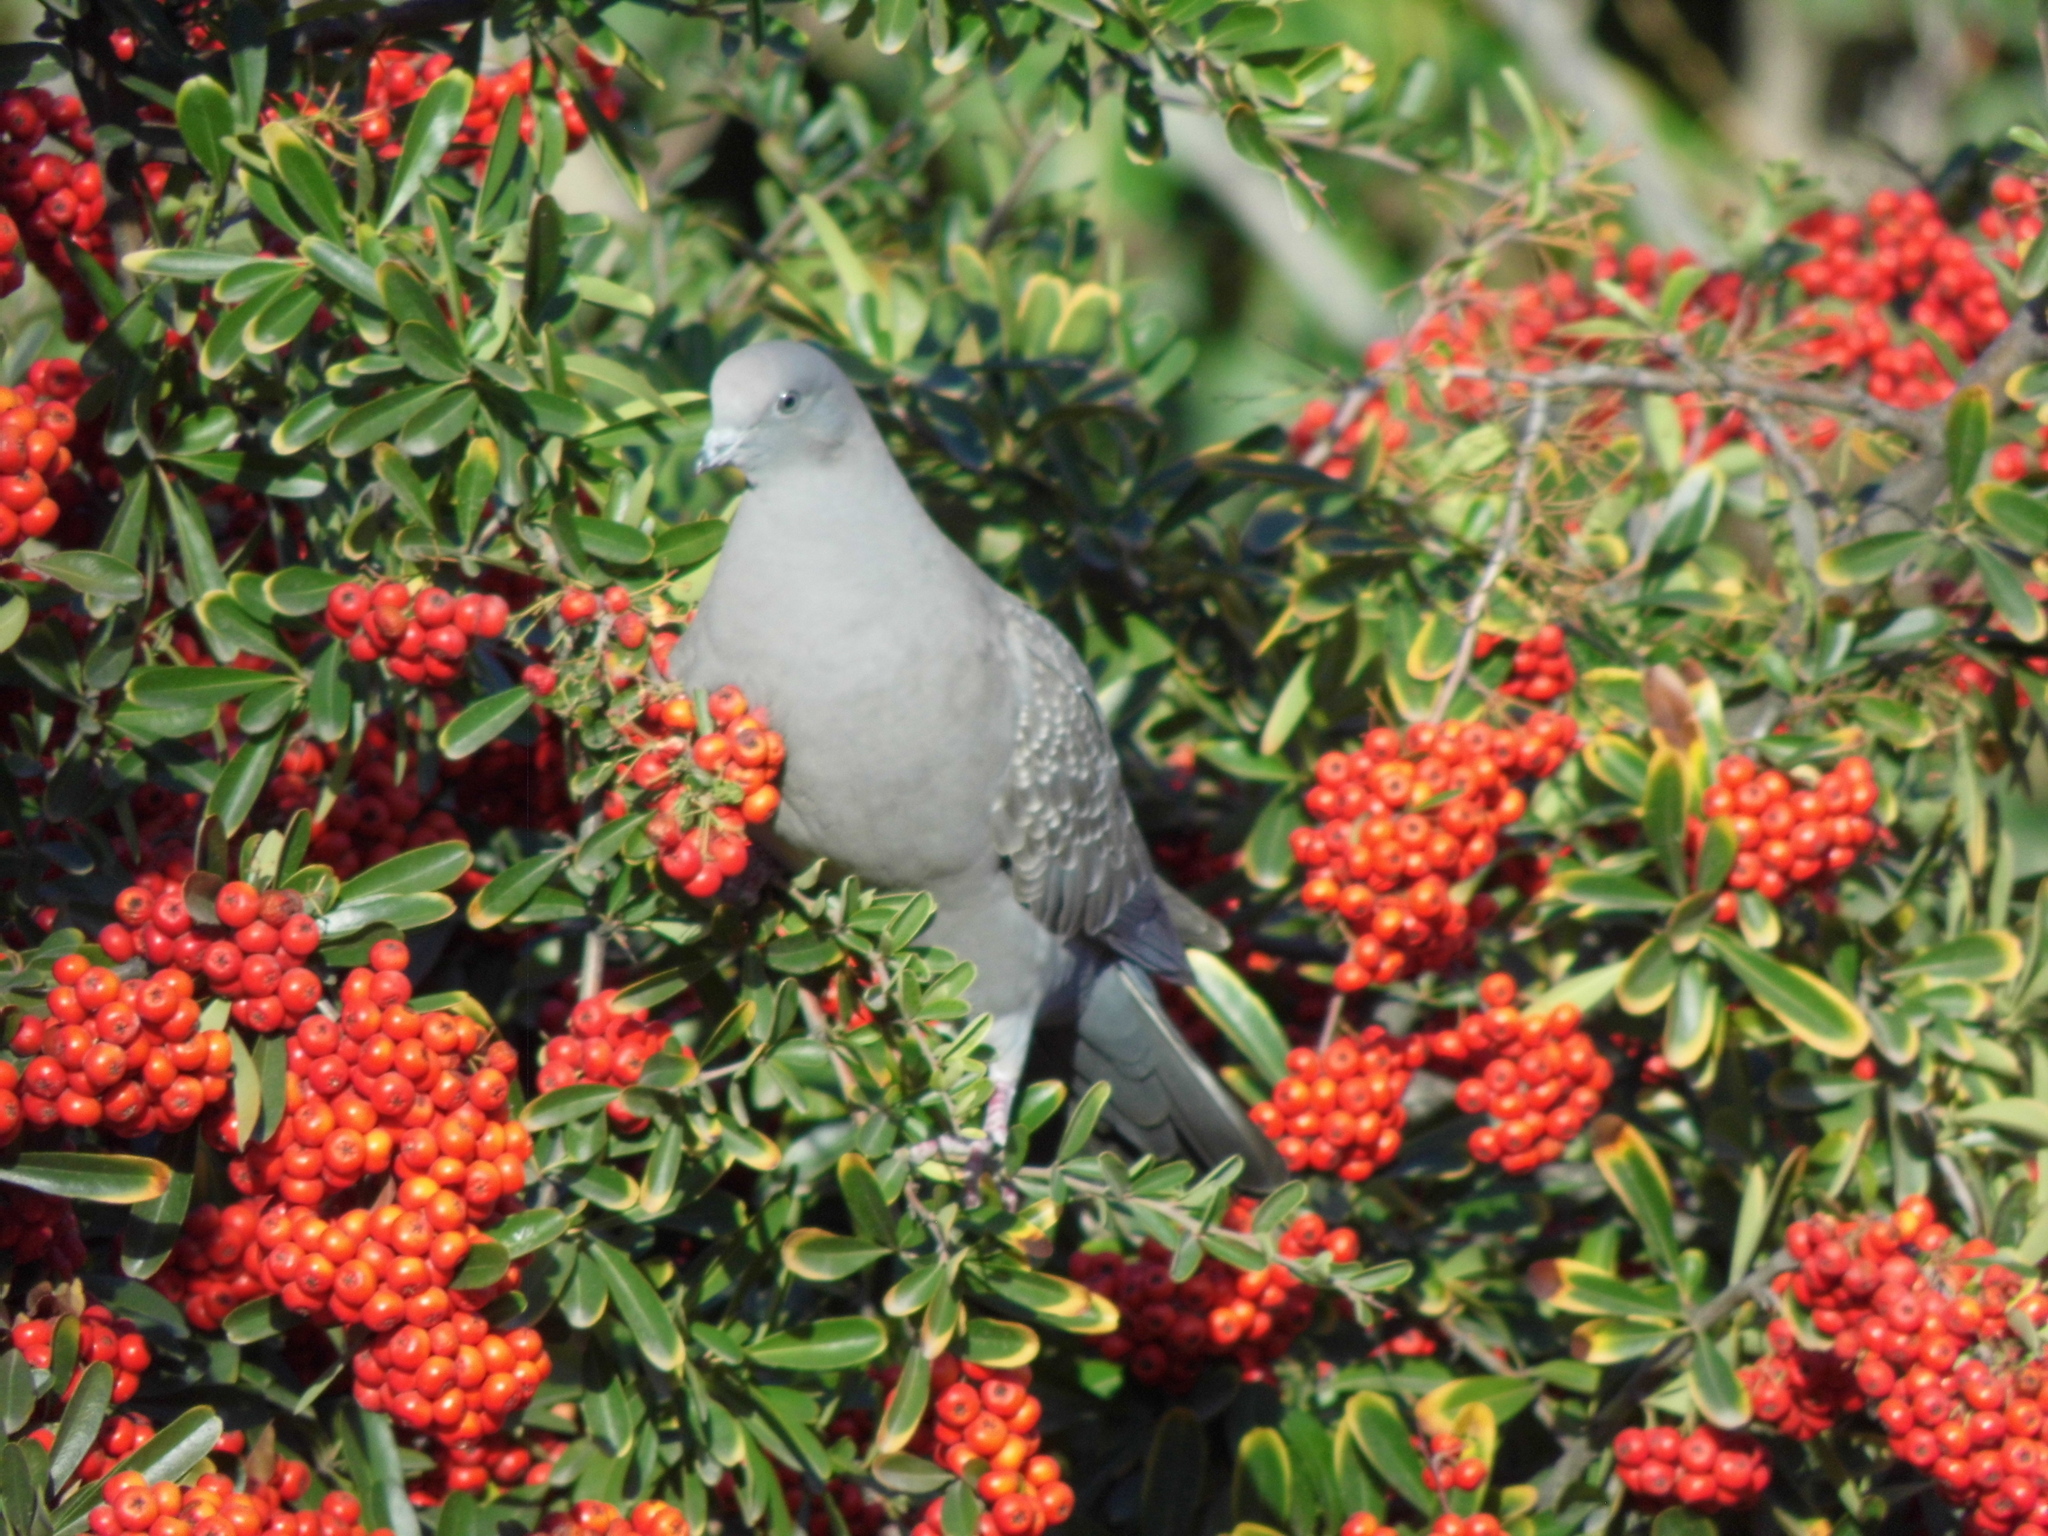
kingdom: Animalia
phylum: Chordata
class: Aves
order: Columbiformes
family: Columbidae
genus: Patagioenas
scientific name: Patagioenas maculosa
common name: Spot-winged pigeon
